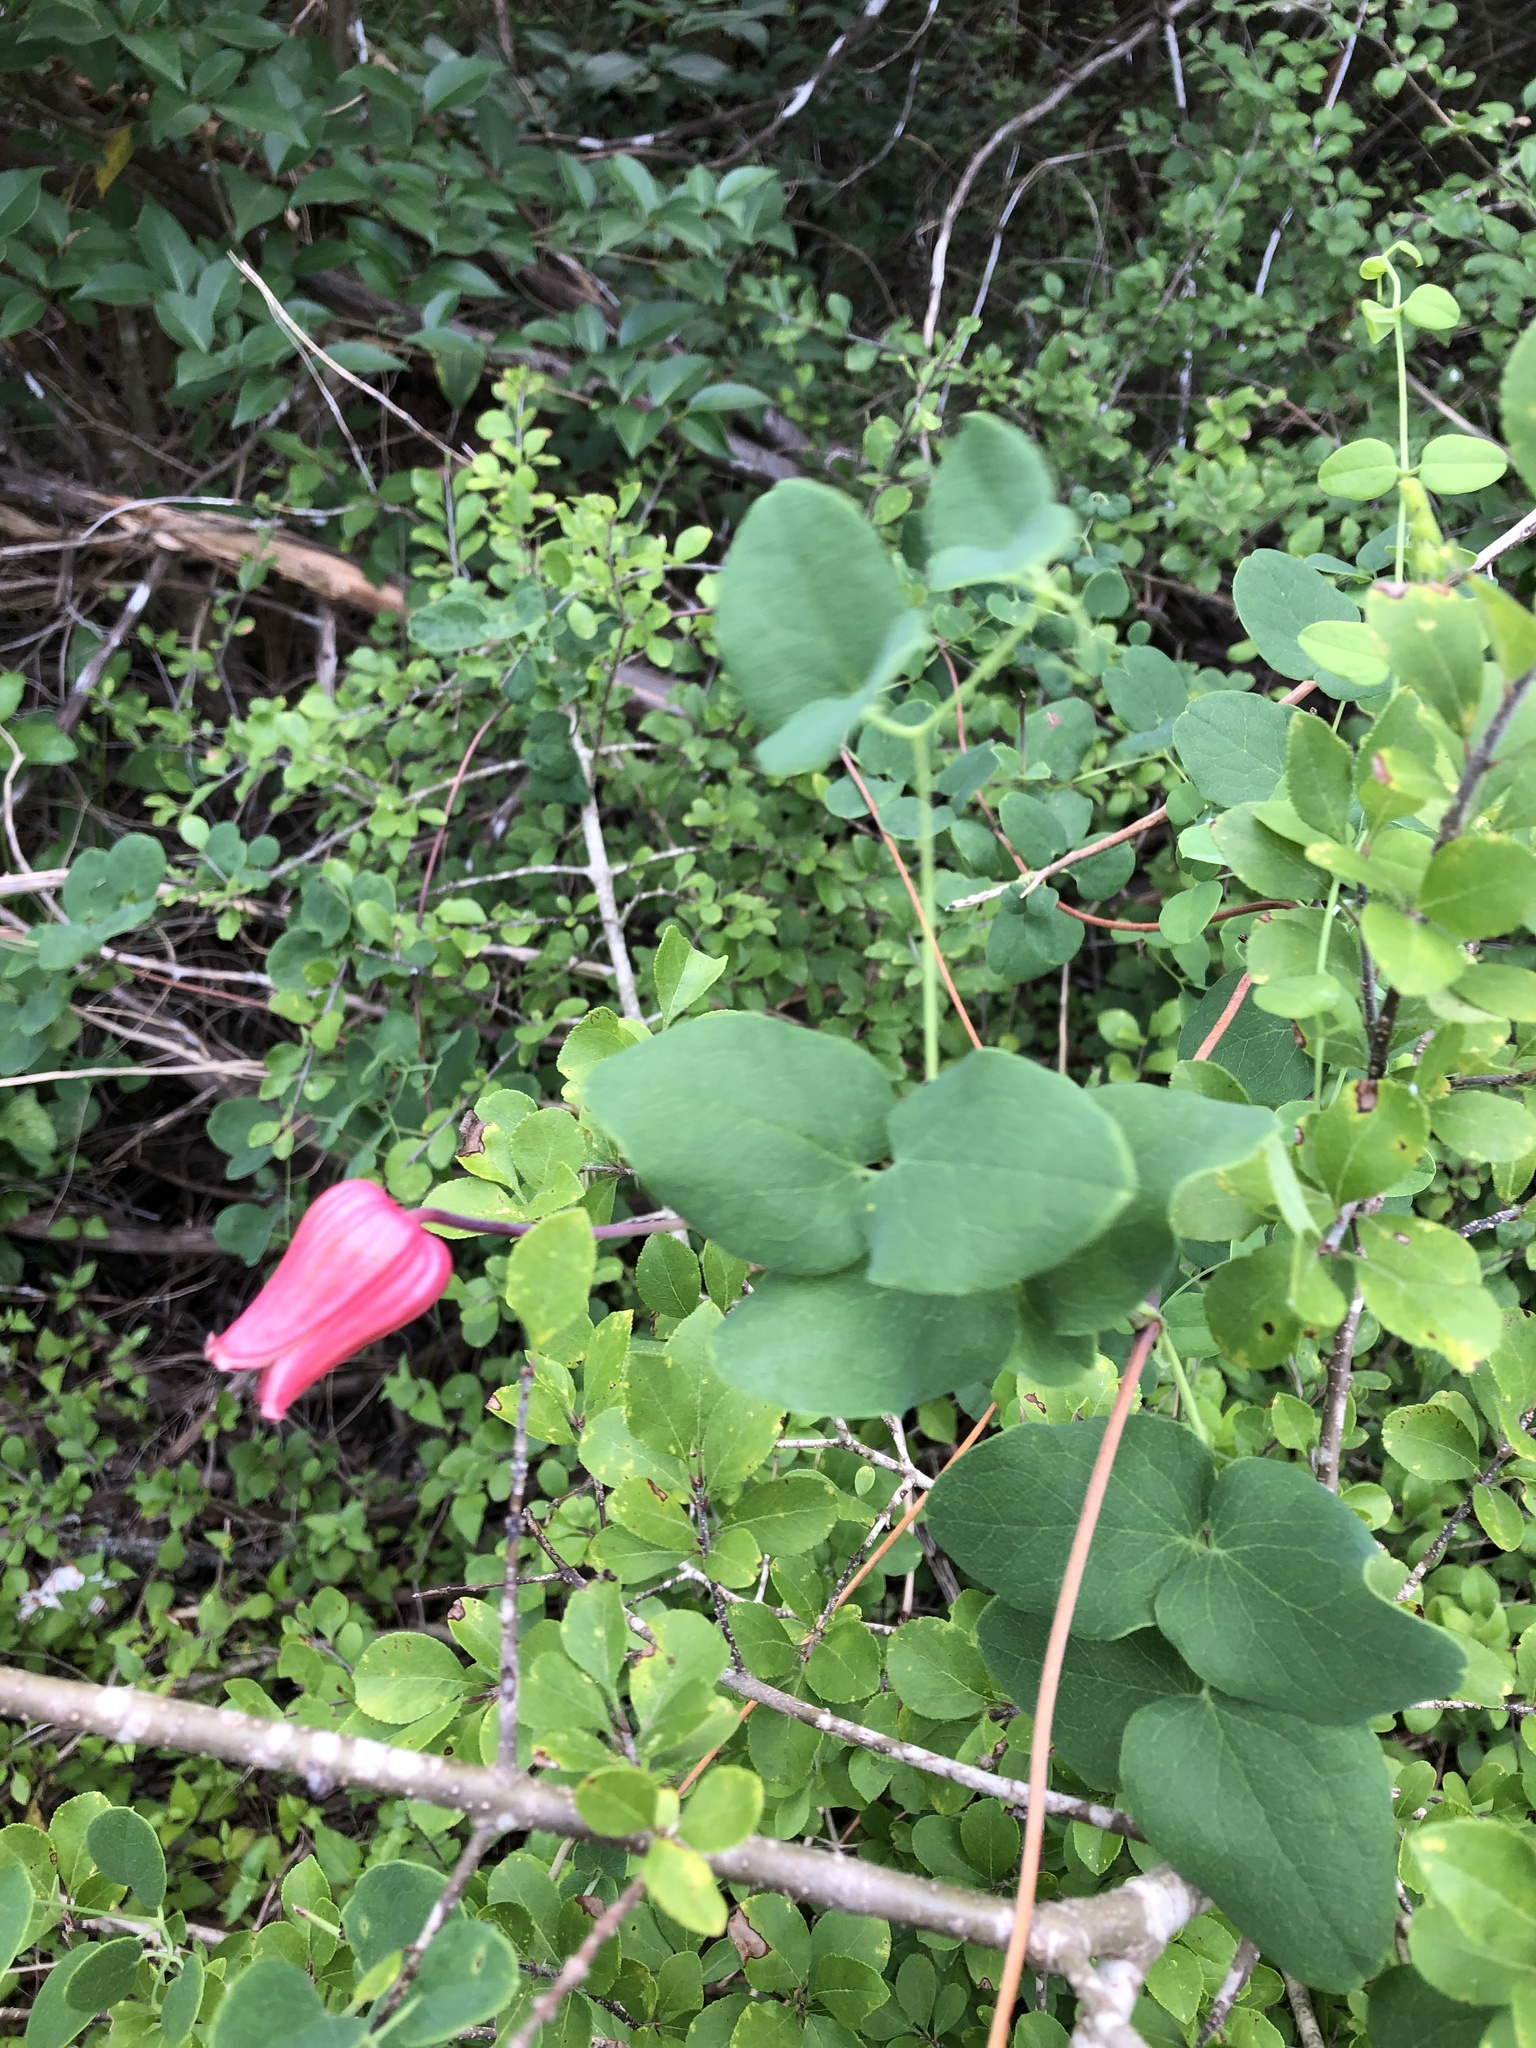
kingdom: Plantae
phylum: Tracheophyta
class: Magnoliopsida
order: Ranunculales
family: Ranunculaceae
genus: Clematis
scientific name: Clematis texensis
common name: Crimson clematis
